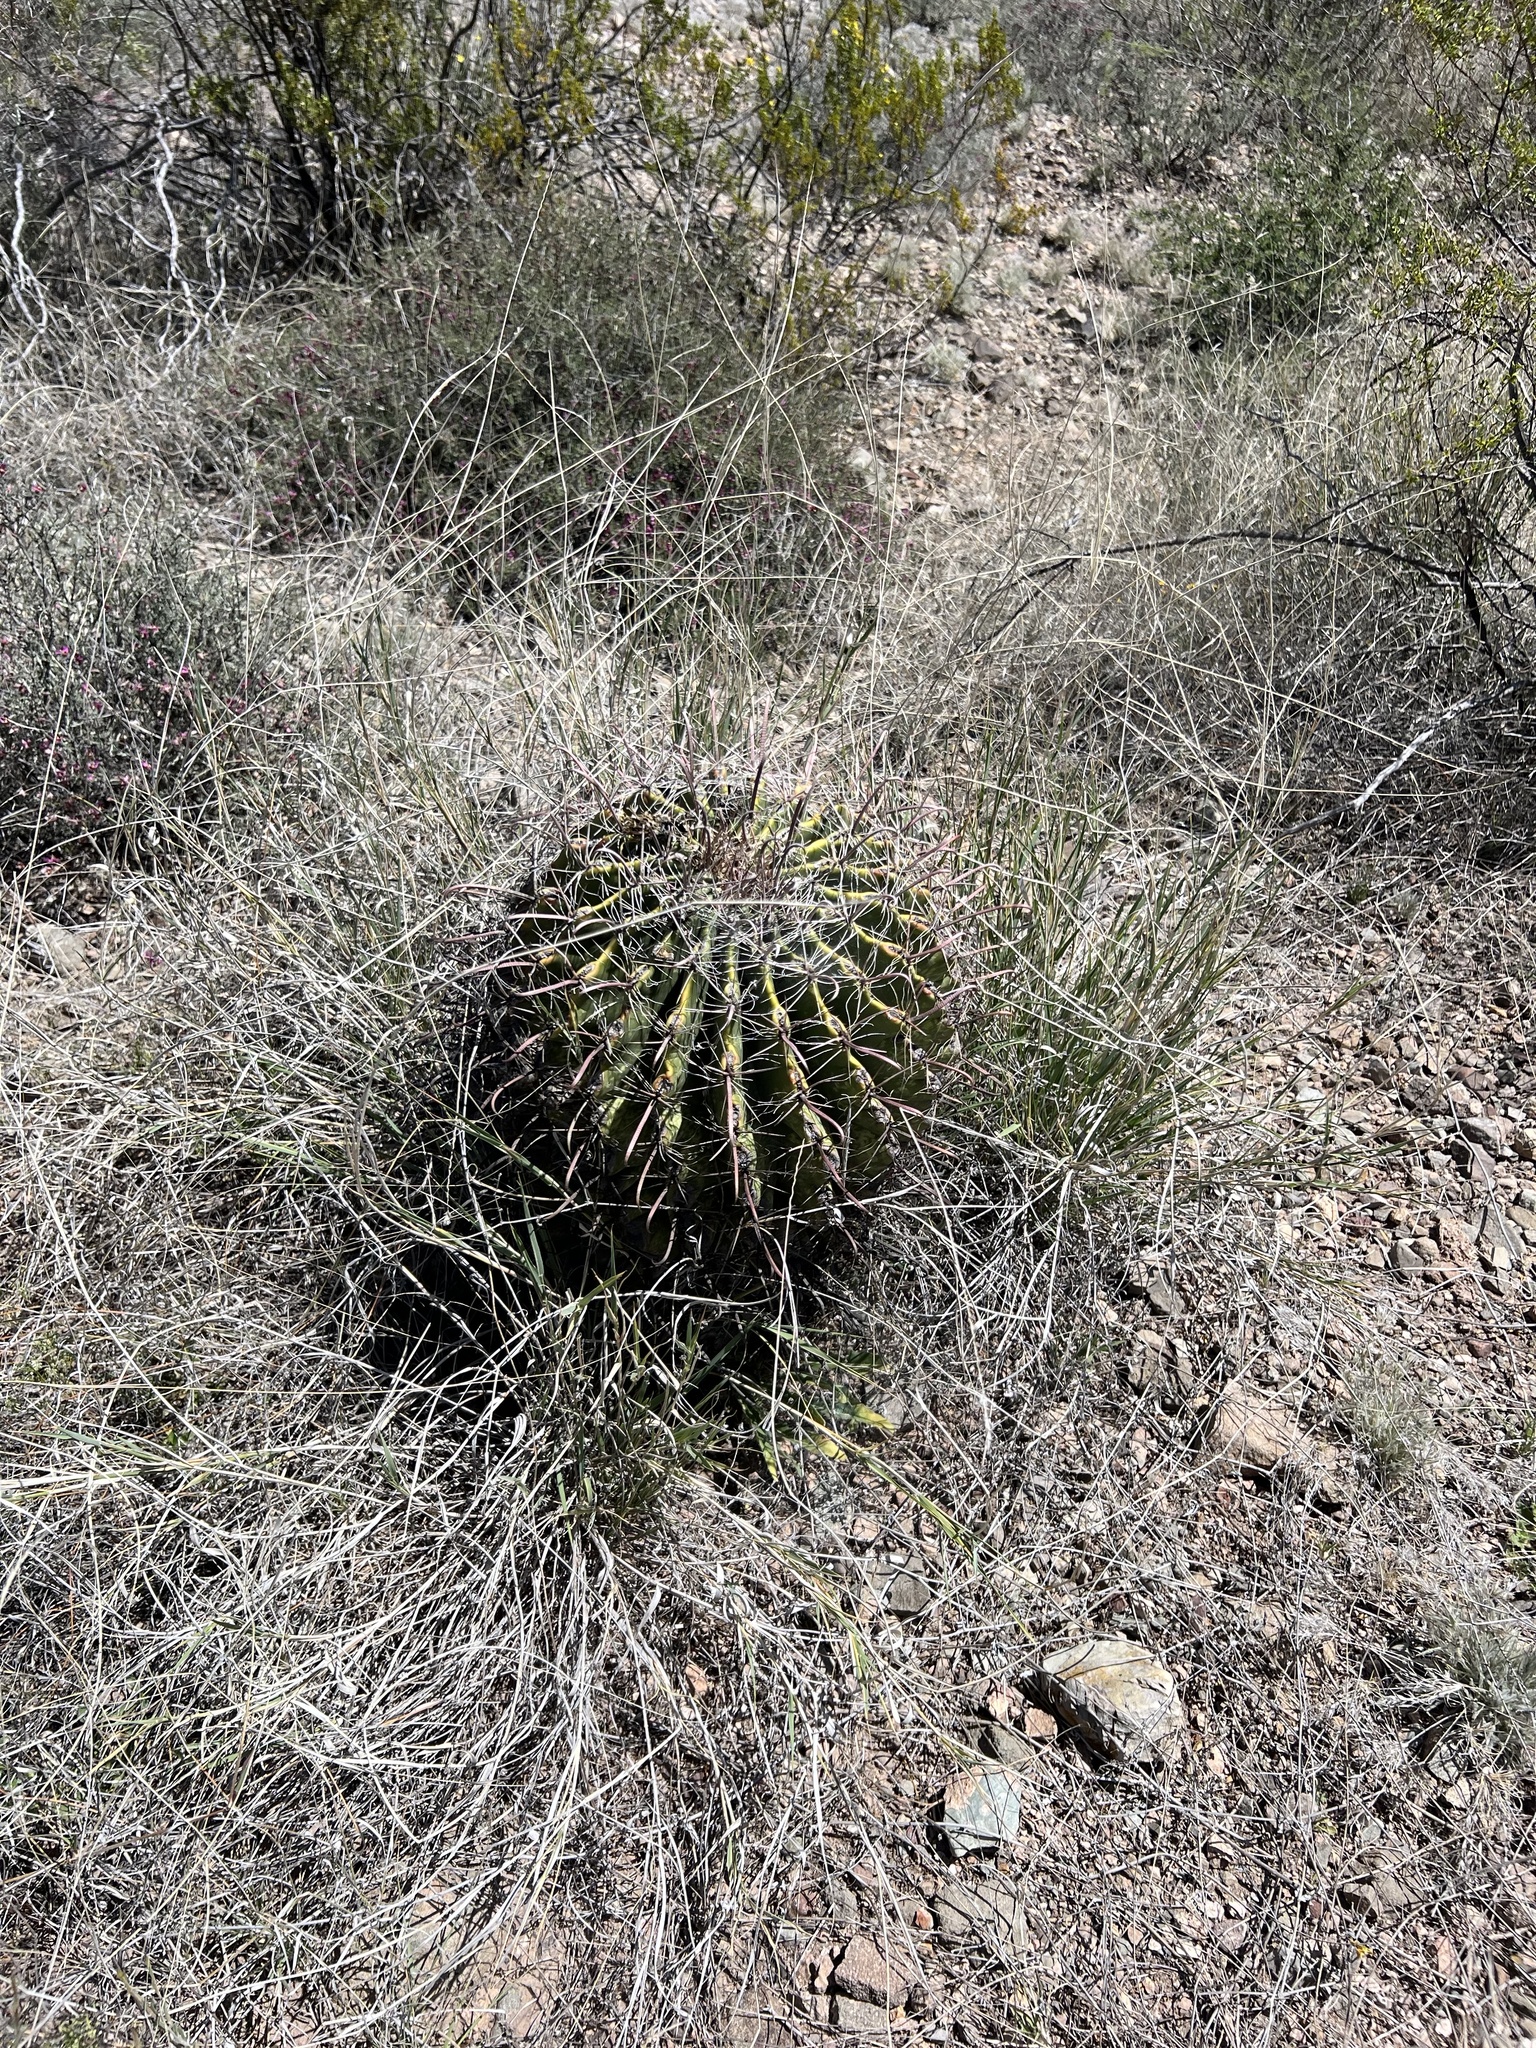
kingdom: Plantae
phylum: Tracheophyta
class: Magnoliopsida
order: Caryophyllales
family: Cactaceae
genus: Ferocactus
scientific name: Ferocactus wislizeni
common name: Candy barrel cactus
